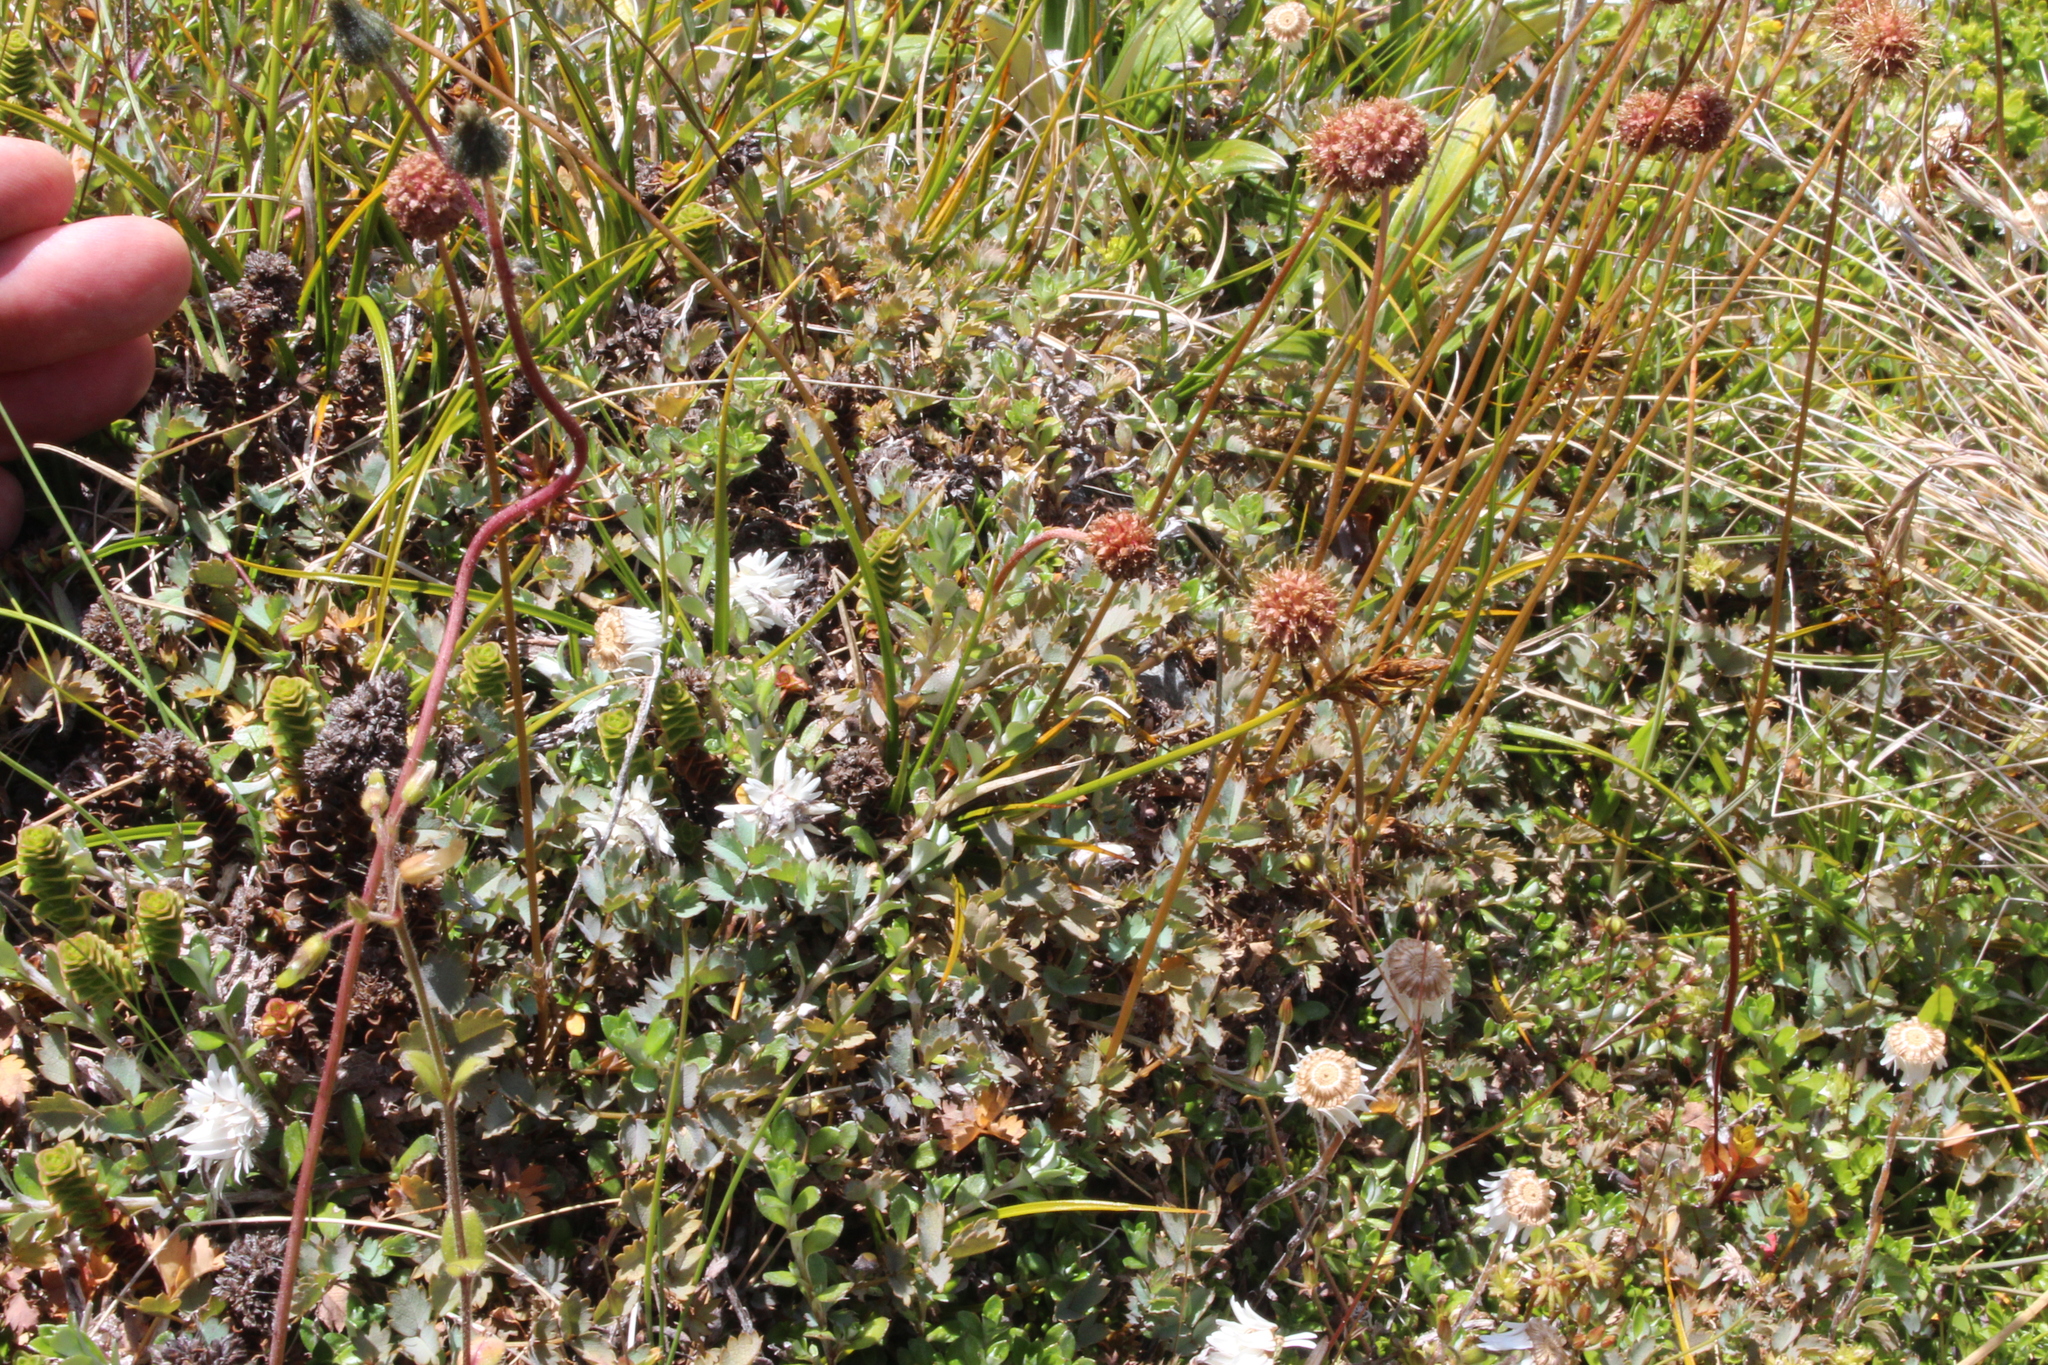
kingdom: Plantae
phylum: Tracheophyta
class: Magnoliopsida
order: Rosales
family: Rosaceae
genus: Acaena
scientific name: Acaena fissistipula
